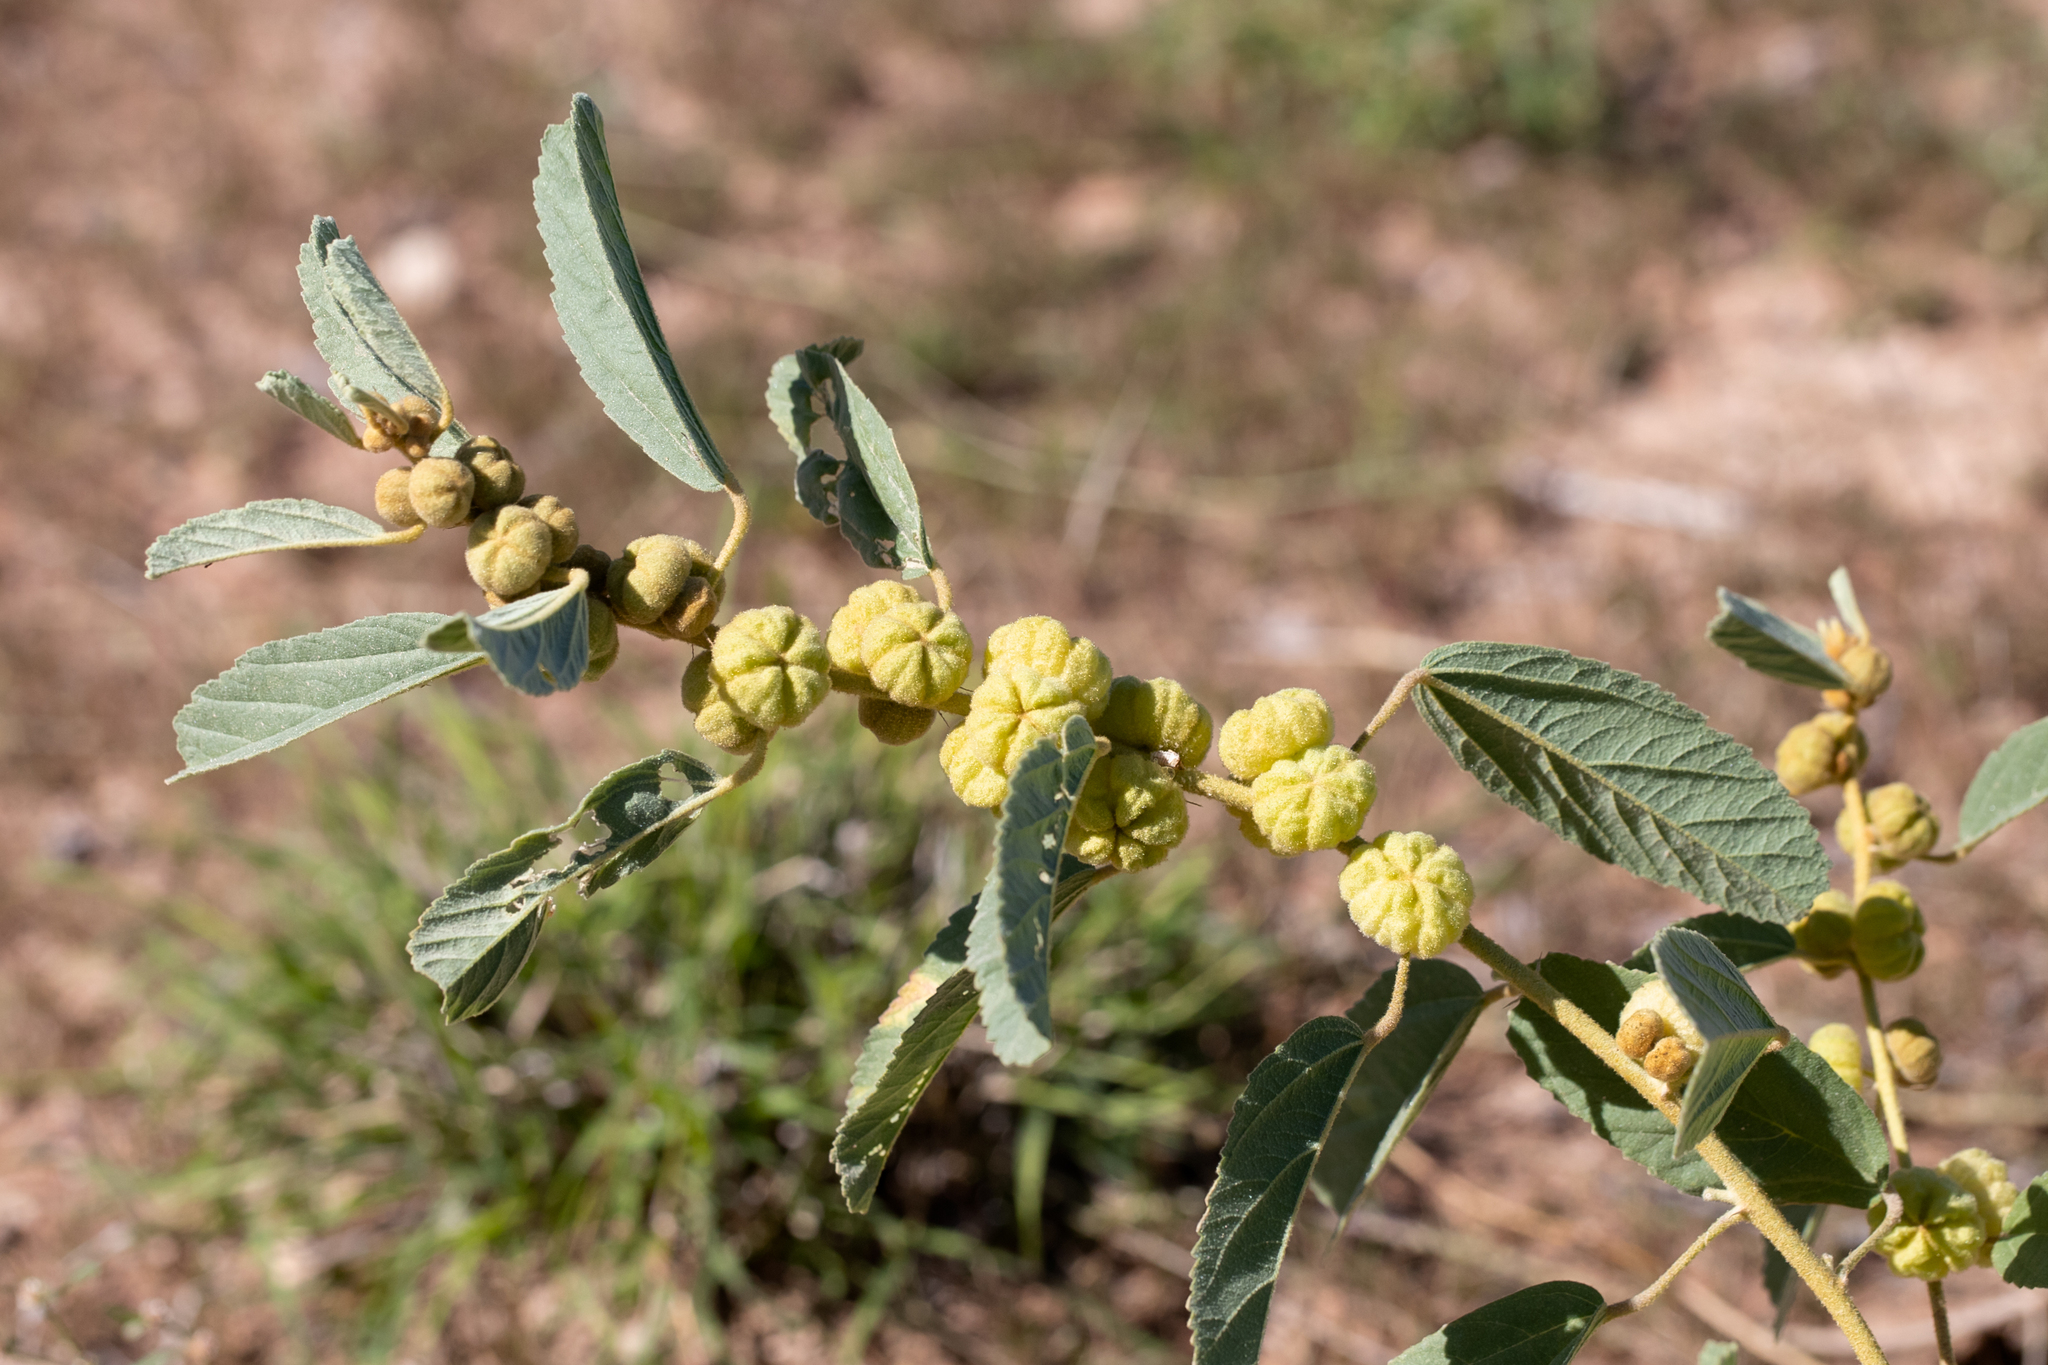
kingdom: Plantae
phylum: Tracheophyta
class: Magnoliopsida
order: Malvales
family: Malvaceae
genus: Sida
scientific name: Sida cleisocalyx
